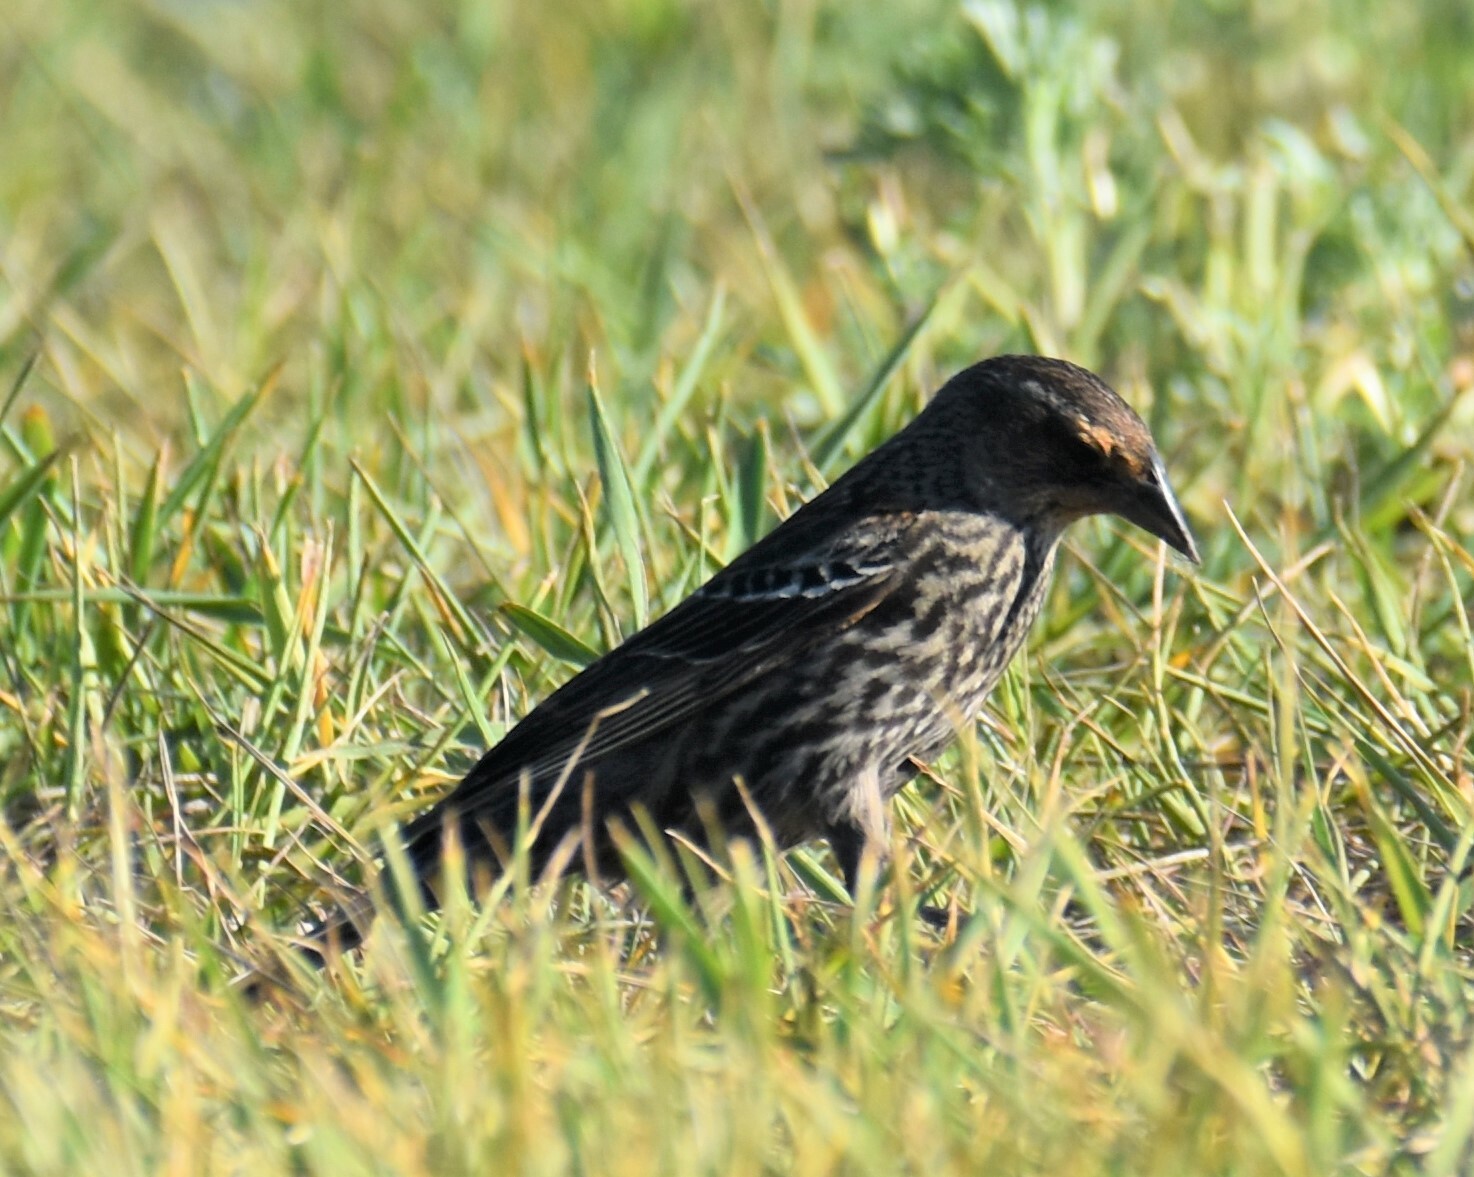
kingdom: Animalia
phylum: Chordata
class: Aves
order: Passeriformes
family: Icteridae
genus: Agelaius
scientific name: Agelaius phoeniceus
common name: Red-winged blackbird
